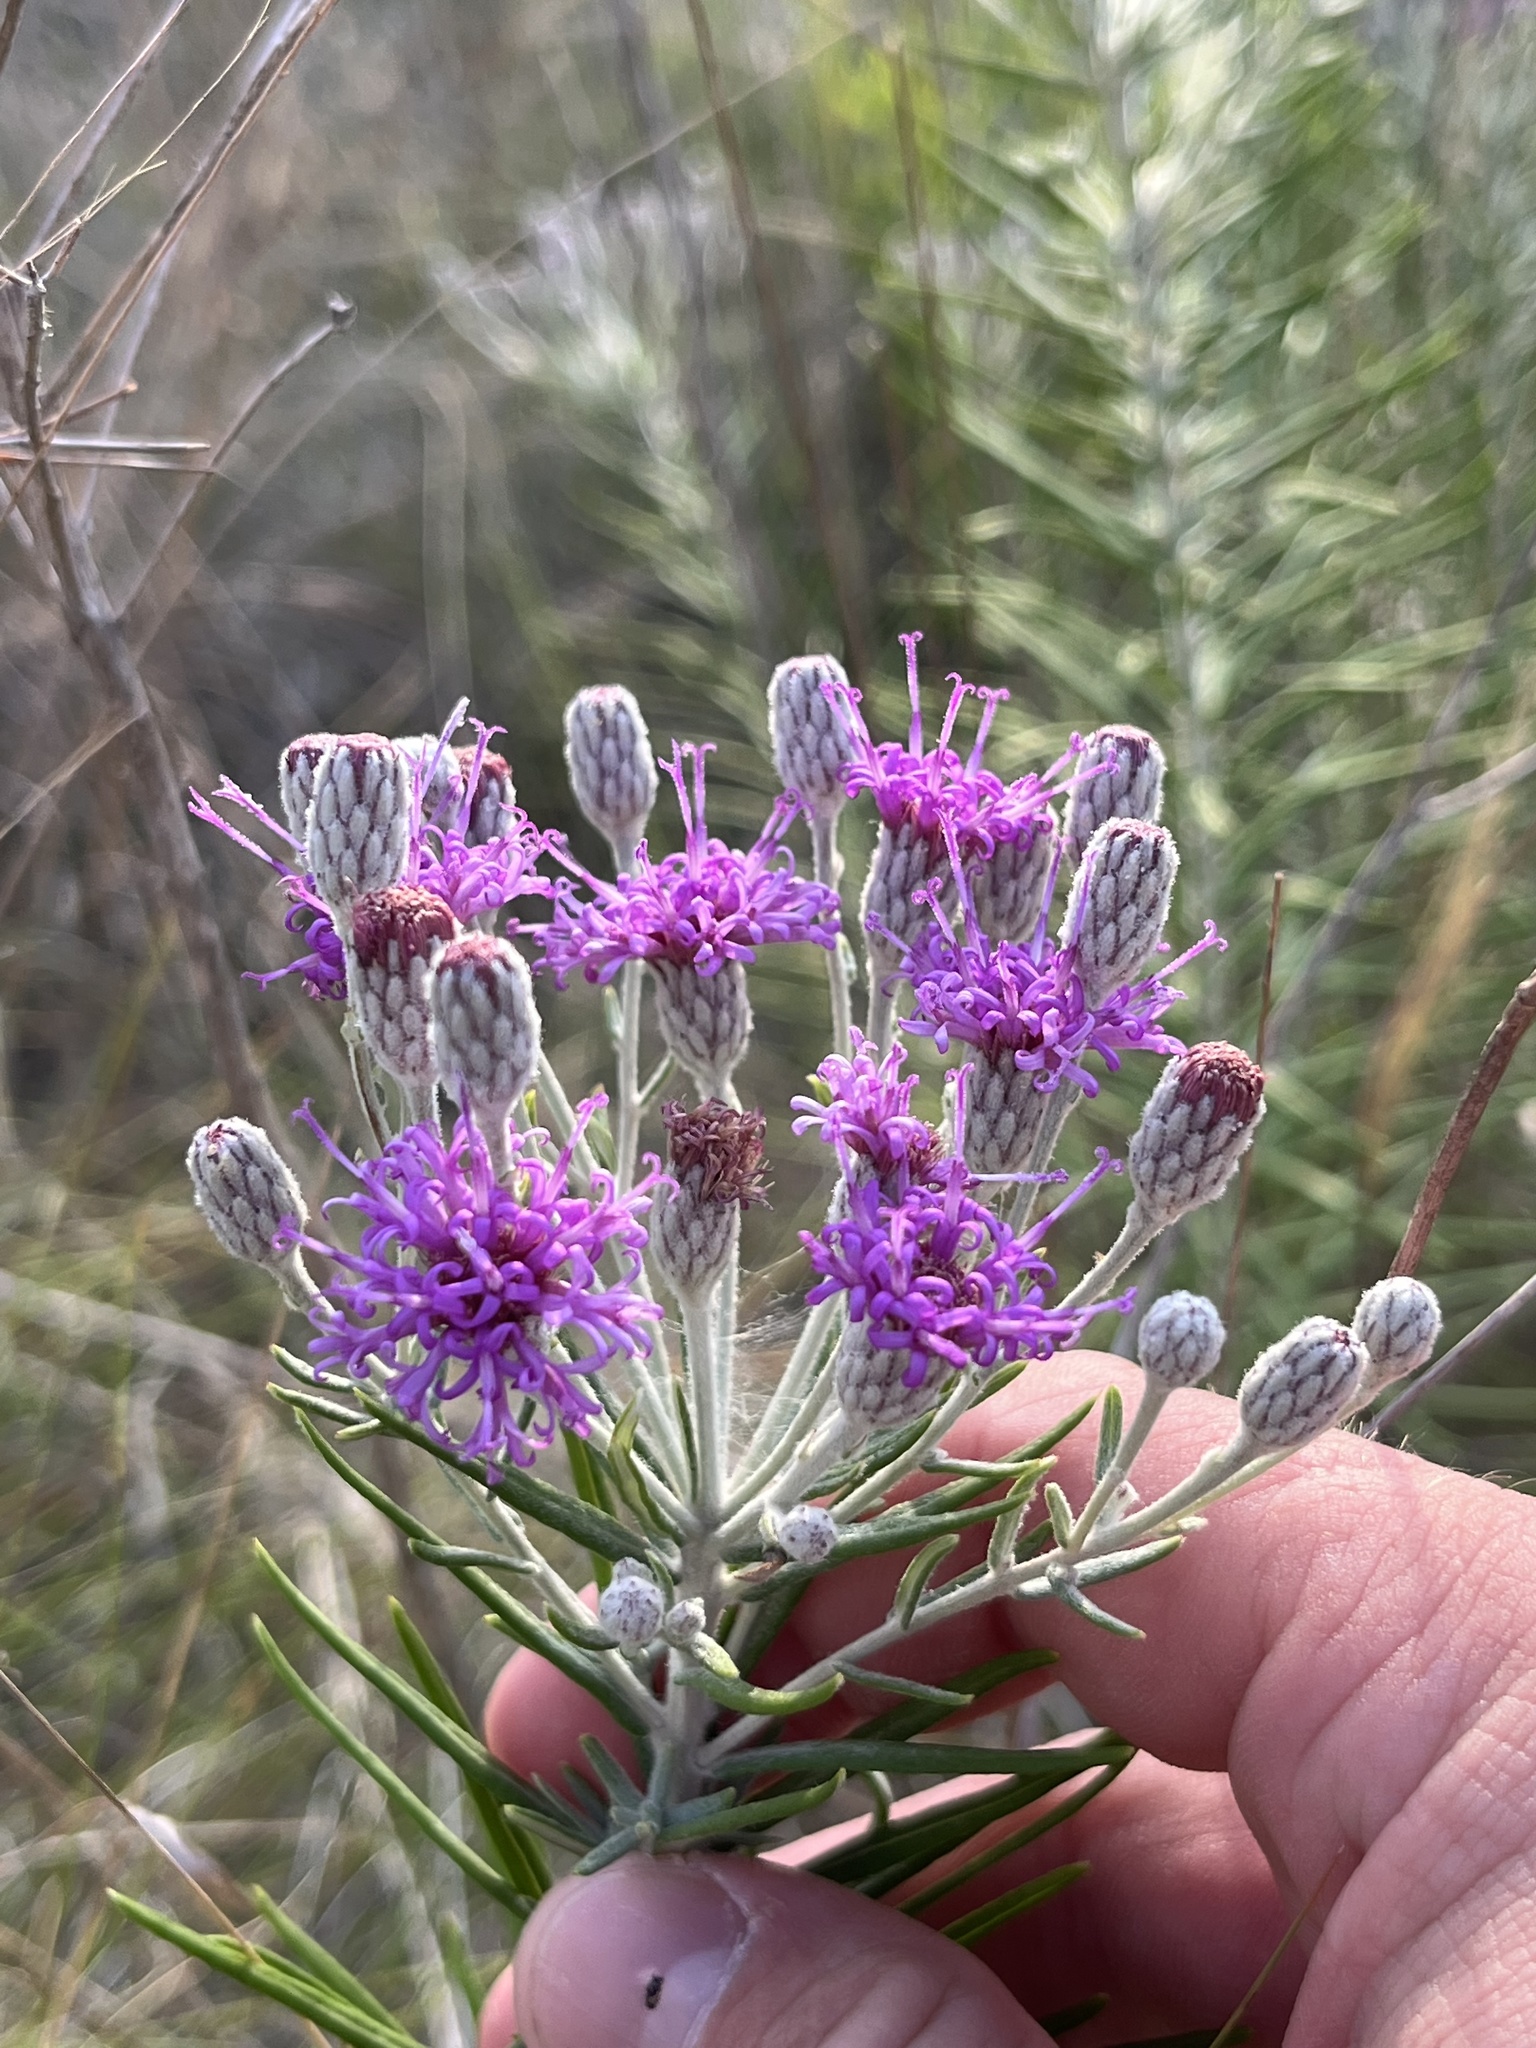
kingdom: Plantae
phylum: Tracheophyta
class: Magnoliopsida
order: Asterales
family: Asteraceae
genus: Vernonia
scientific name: Vernonia lindheimeri
